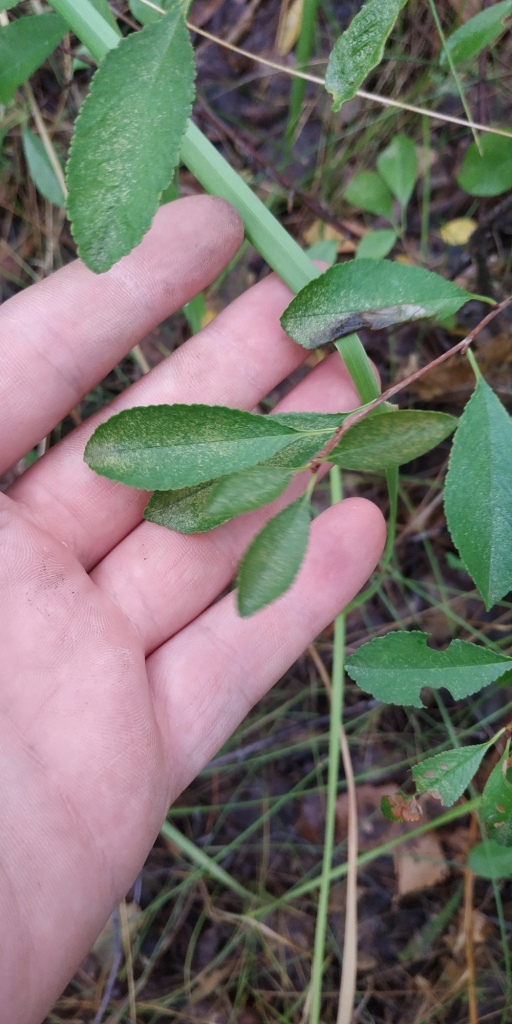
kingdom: Plantae
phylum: Tracheophyta
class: Magnoliopsida
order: Rosales
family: Rosaceae
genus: Prunus
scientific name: Prunus fruticosa
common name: European dwarf cherry
